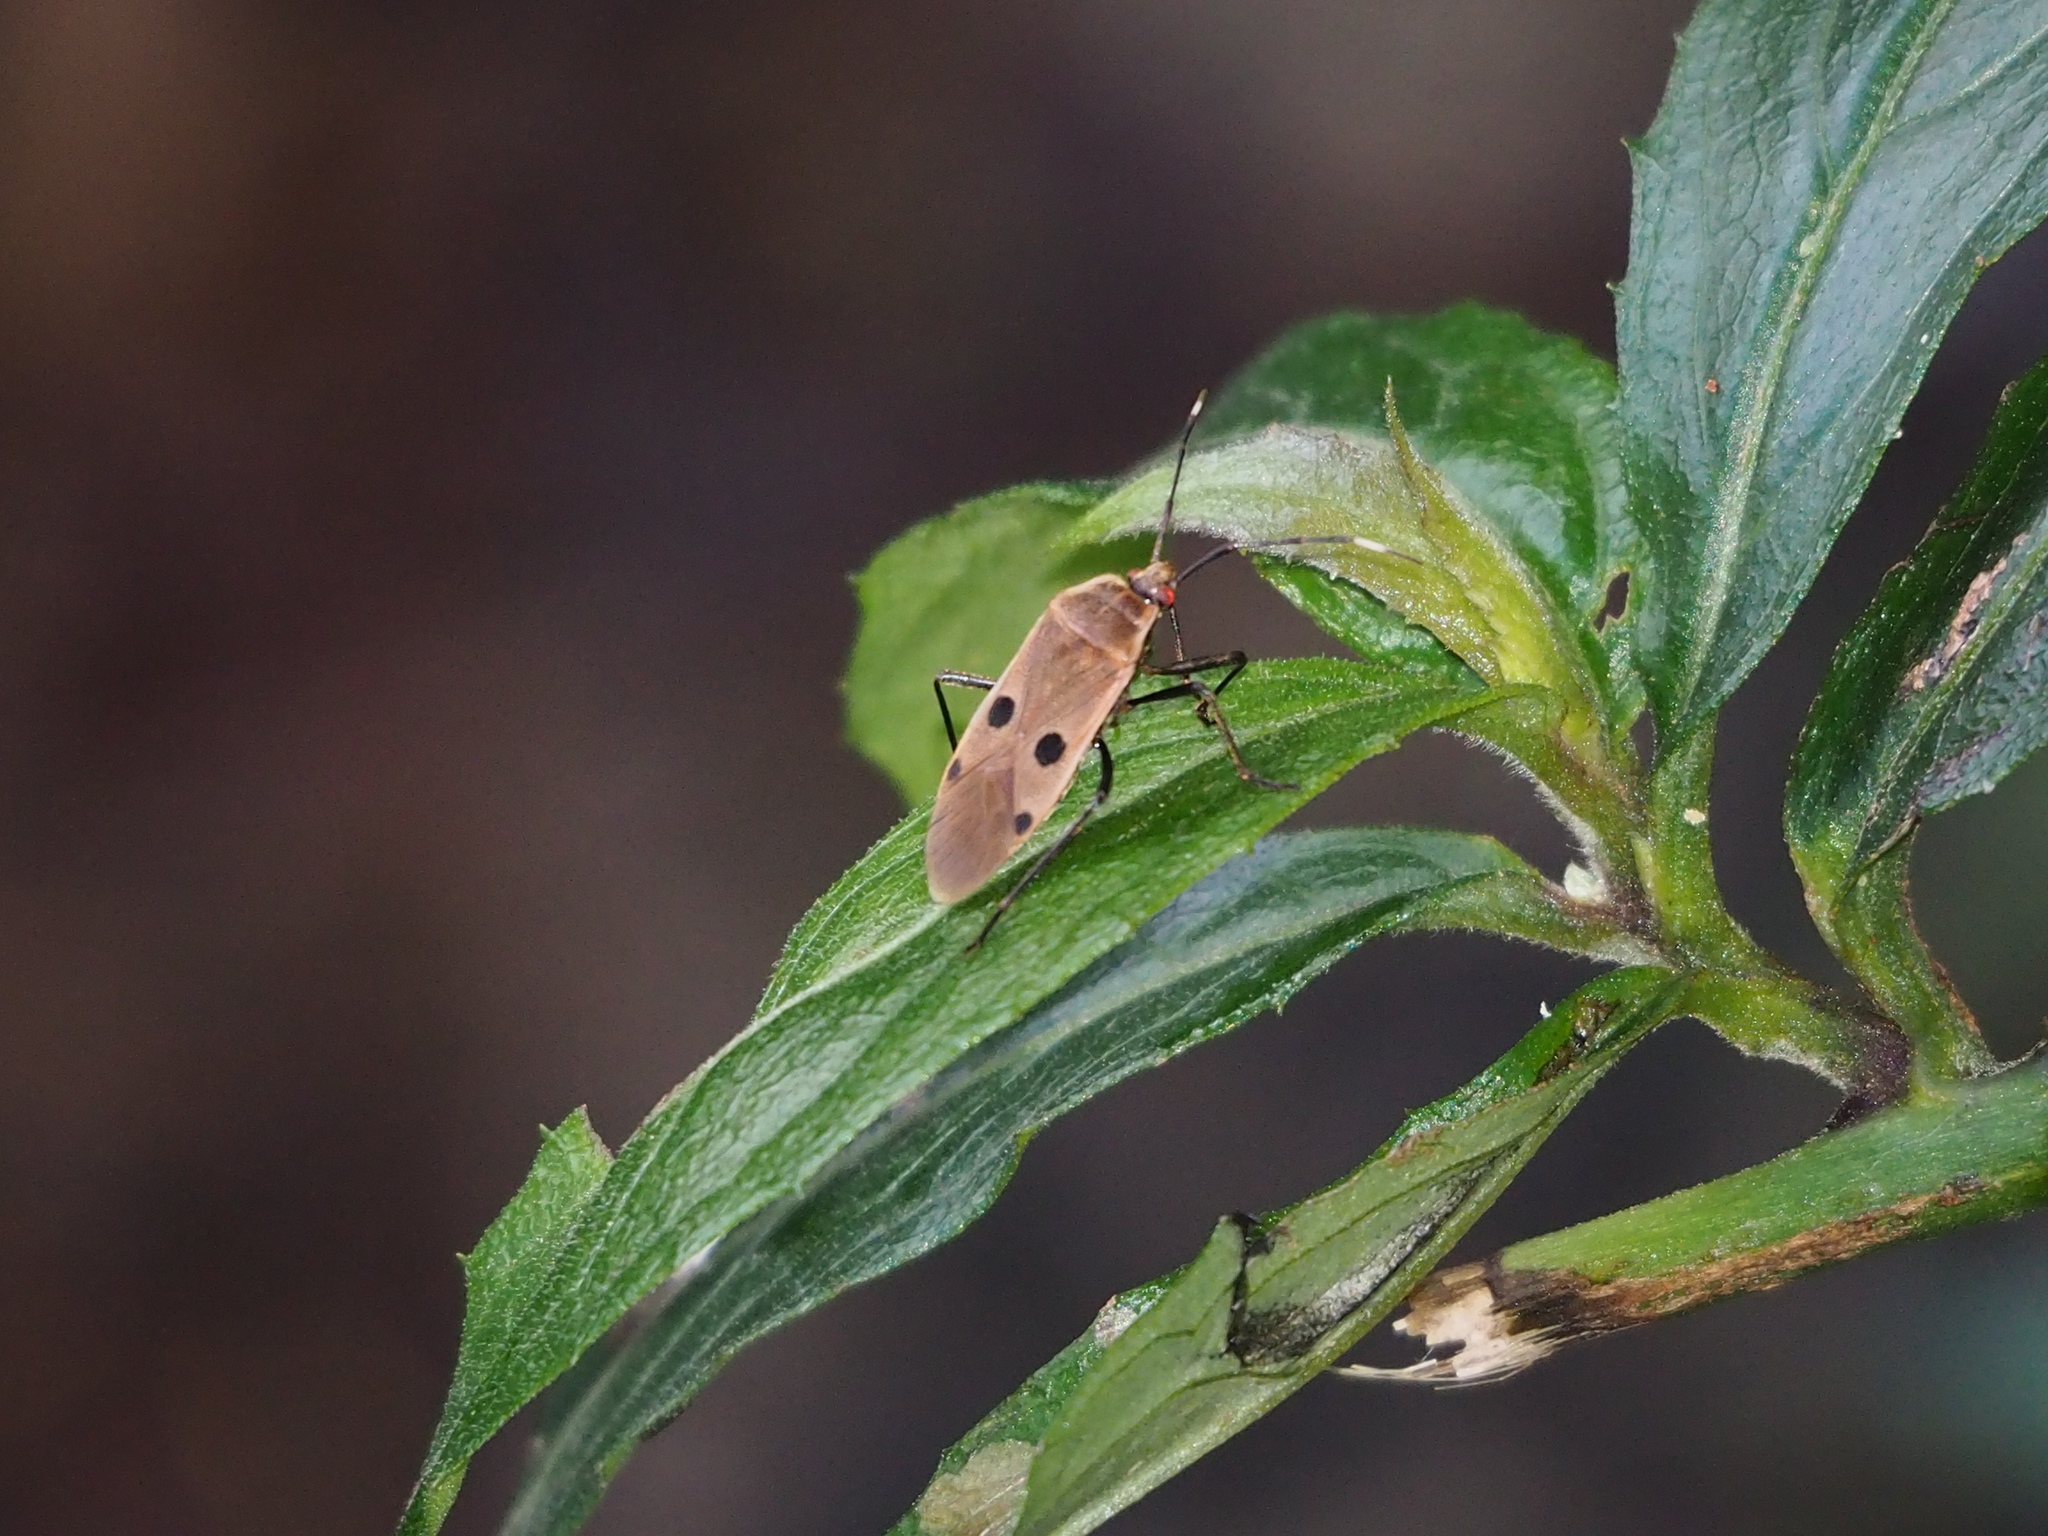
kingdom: Animalia
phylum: Arthropoda
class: Insecta
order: Hemiptera
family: Largidae
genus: Physopelta
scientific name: Physopelta quadriguttata
